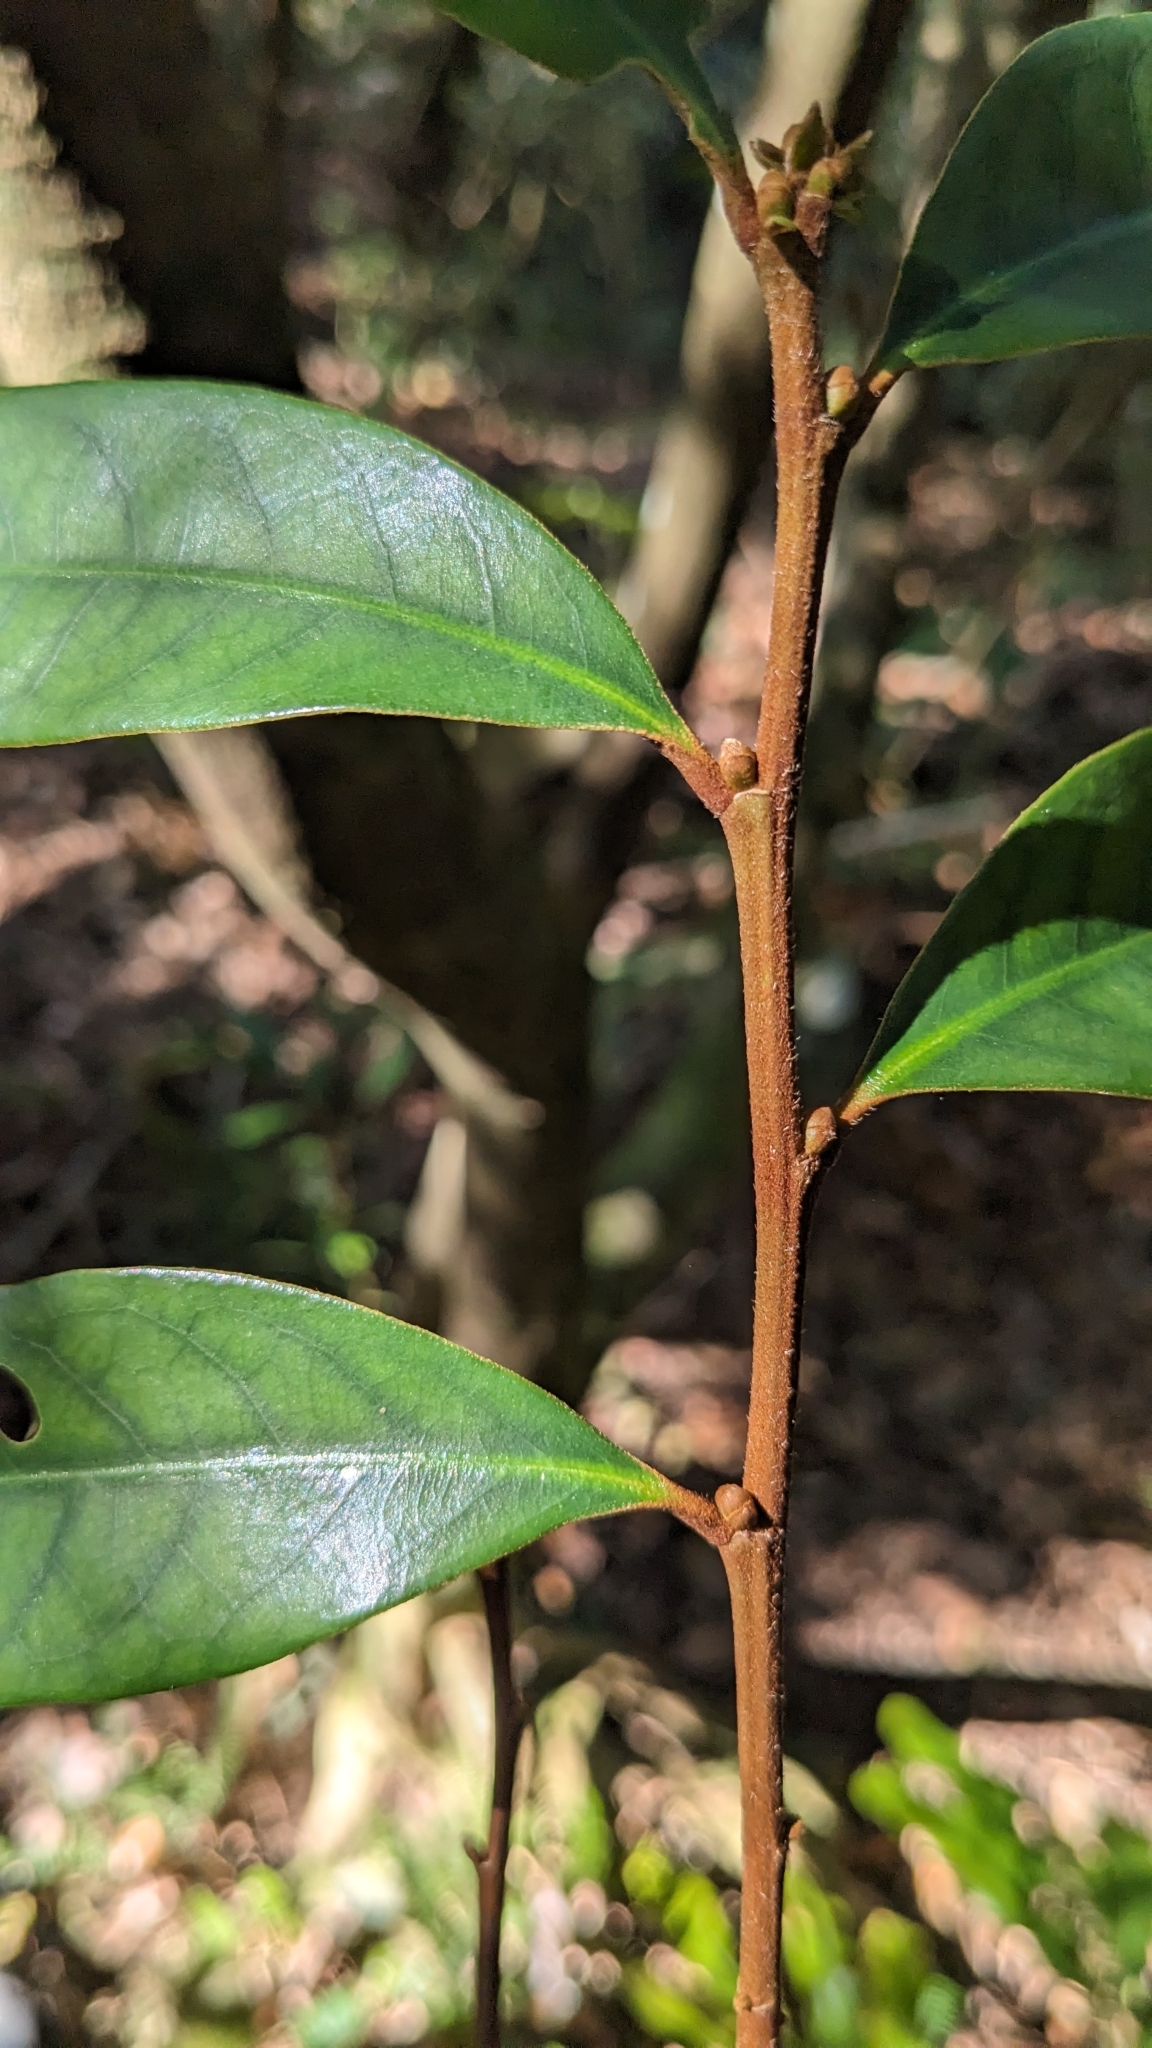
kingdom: Plantae
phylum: Tracheophyta
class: Magnoliopsida
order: Fagales
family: Fagaceae
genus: Castanopsis
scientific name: Castanopsis fargesii
